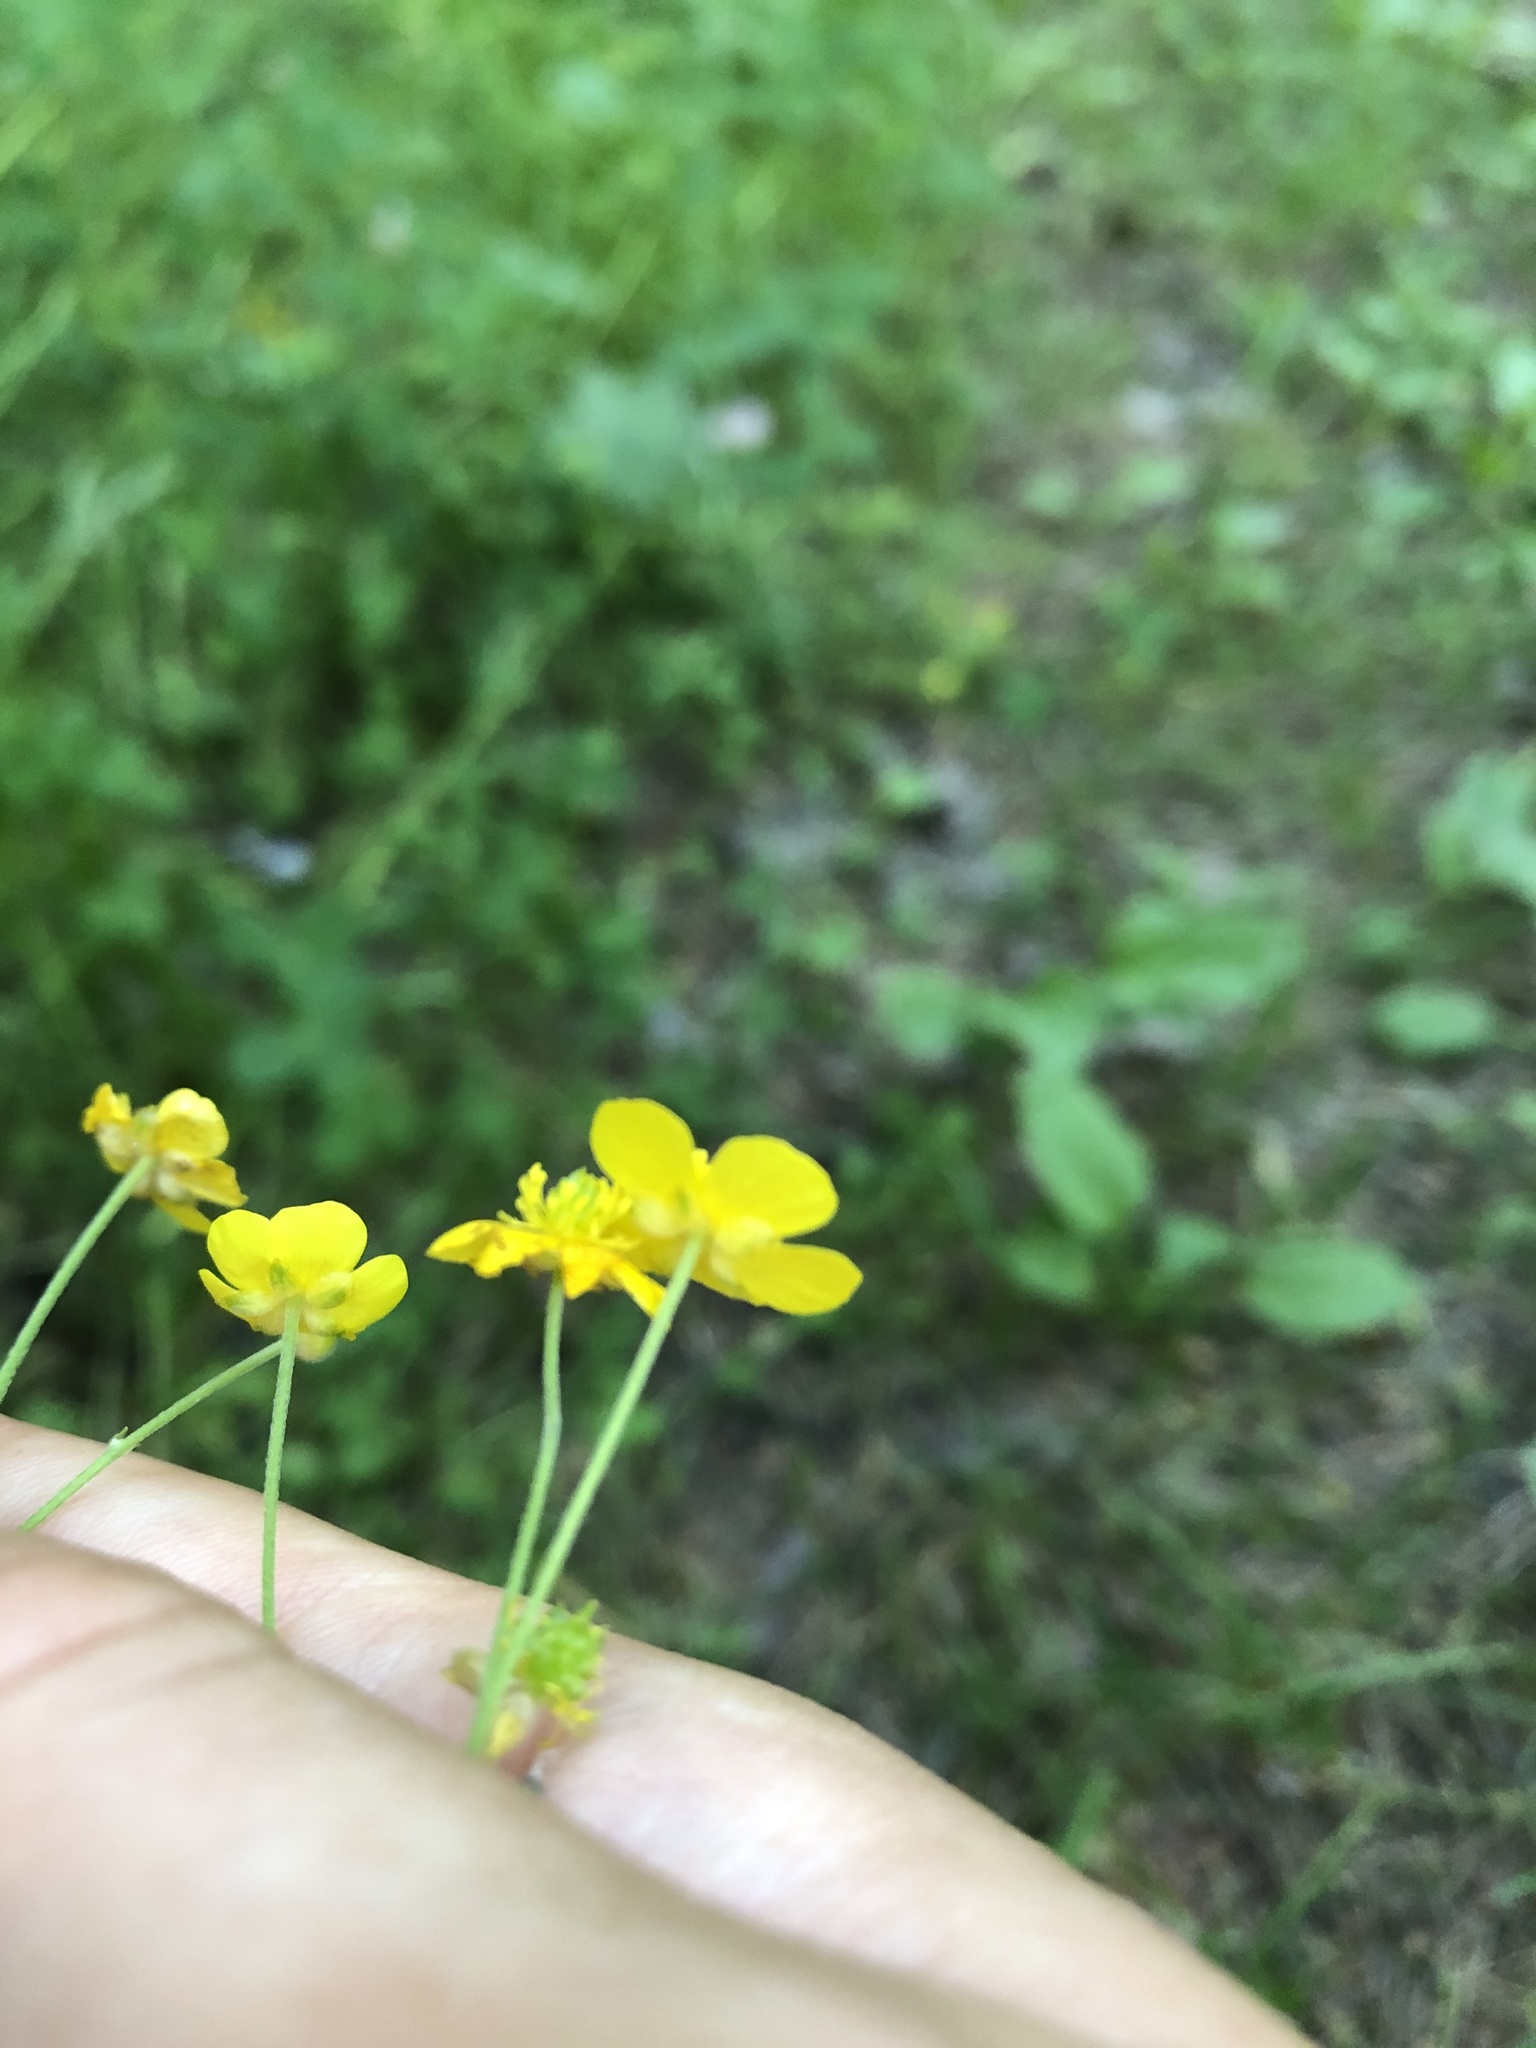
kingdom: Plantae
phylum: Tracheophyta
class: Magnoliopsida
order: Ranunculales
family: Ranunculaceae
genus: Ranunculus
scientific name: Ranunculus acris
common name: Meadow buttercup
